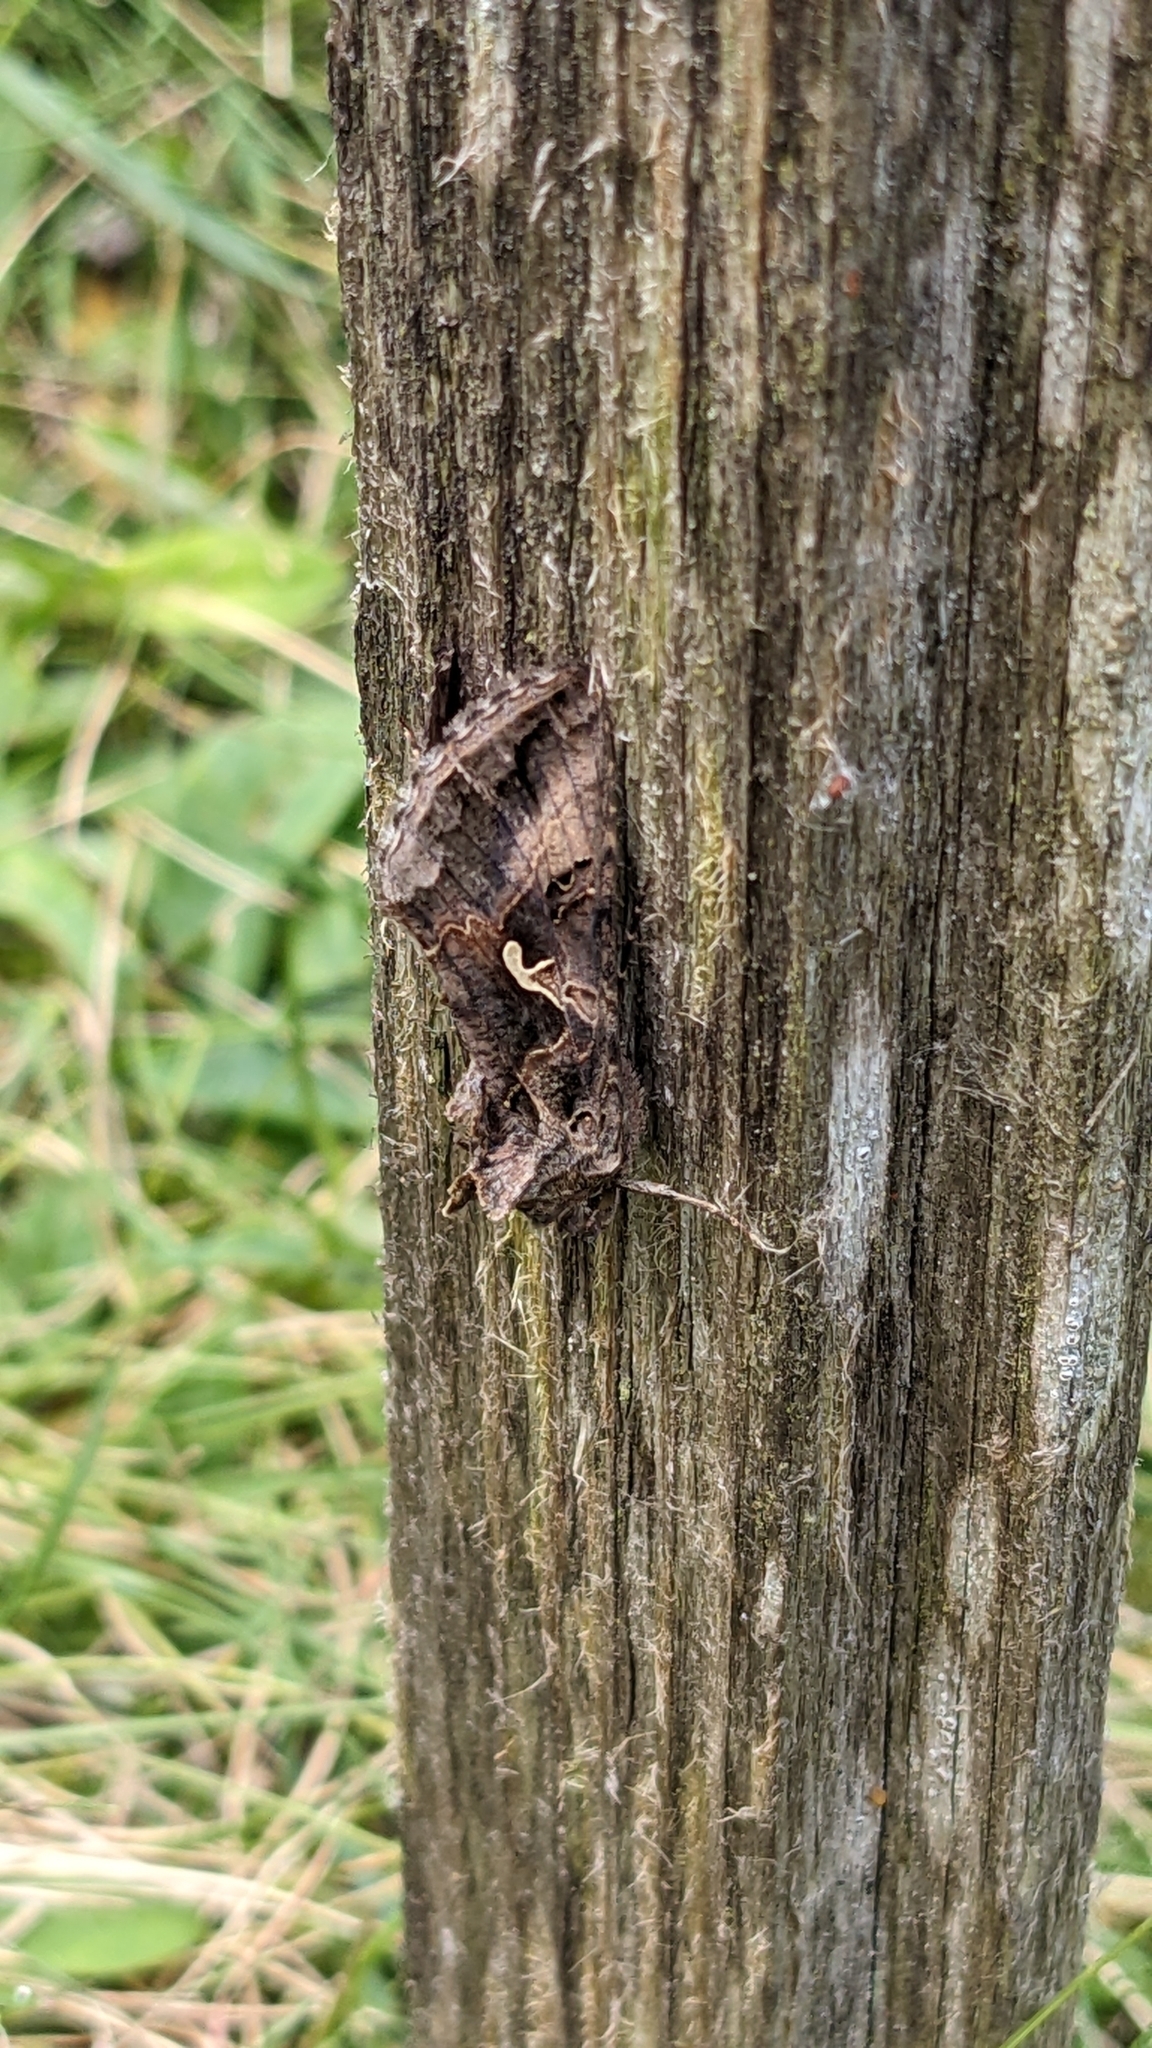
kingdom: Animalia
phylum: Arthropoda
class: Insecta
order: Lepidoptera
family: Noctuidae
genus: Autographa
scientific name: Autographa gamma
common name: Silver y
